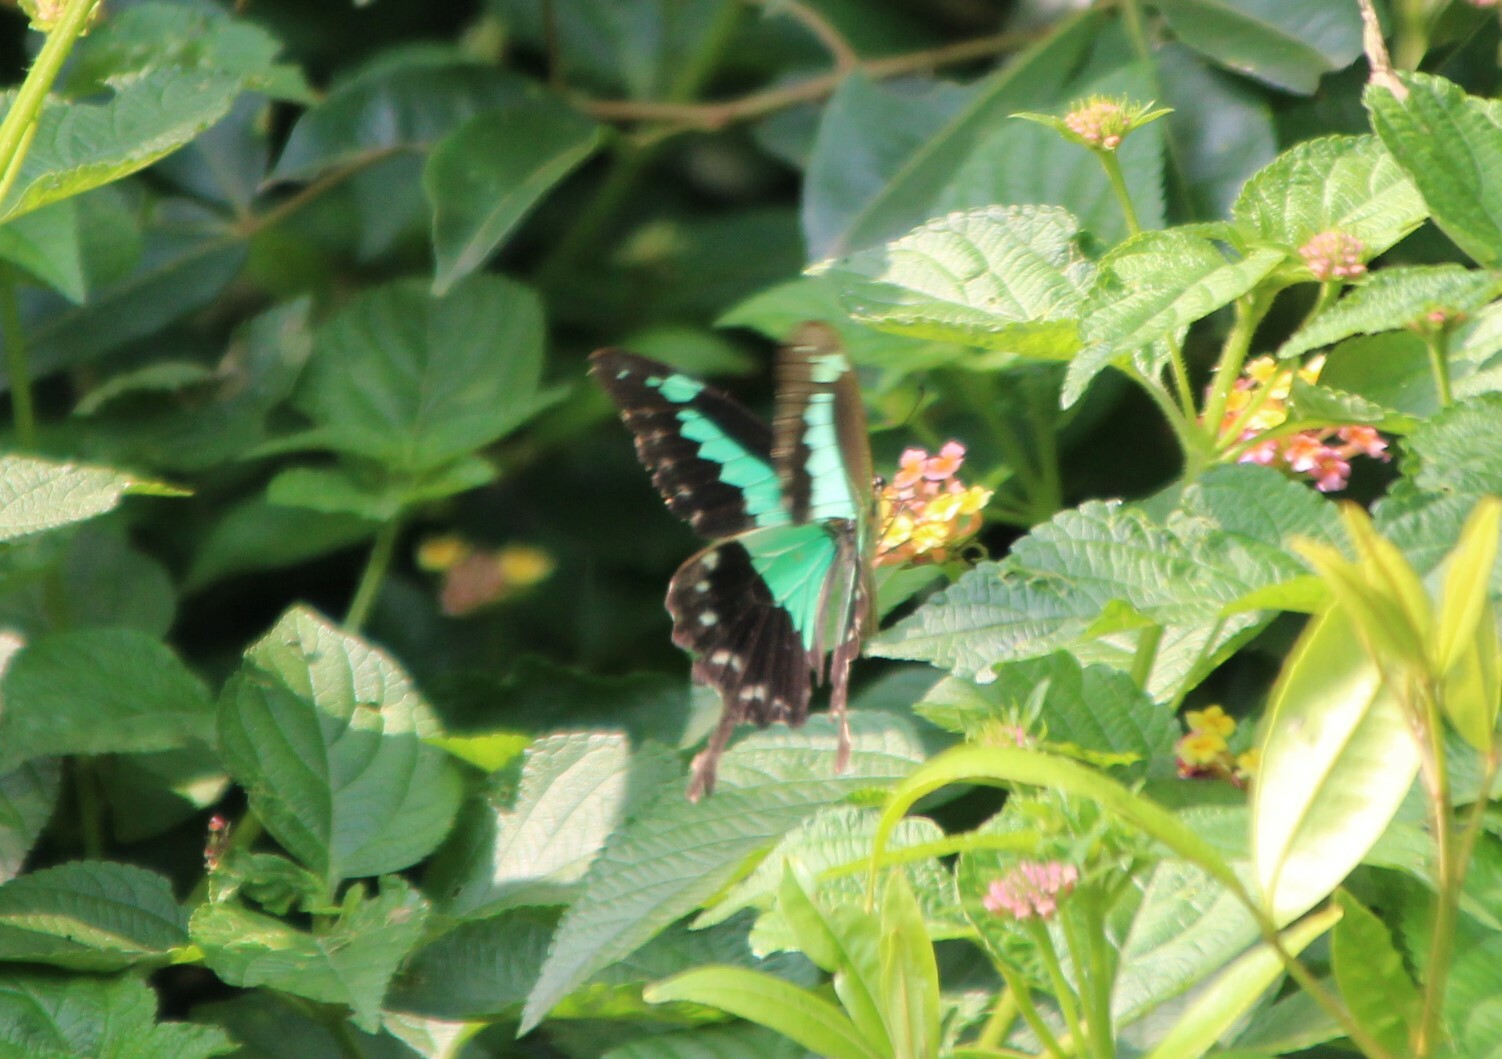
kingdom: Animalia
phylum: Arthropoda
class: Insecta
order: Lepidoptera
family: Papilionidae
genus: Papilio
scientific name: Papilio phorcas
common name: Apple-green swallowtail
